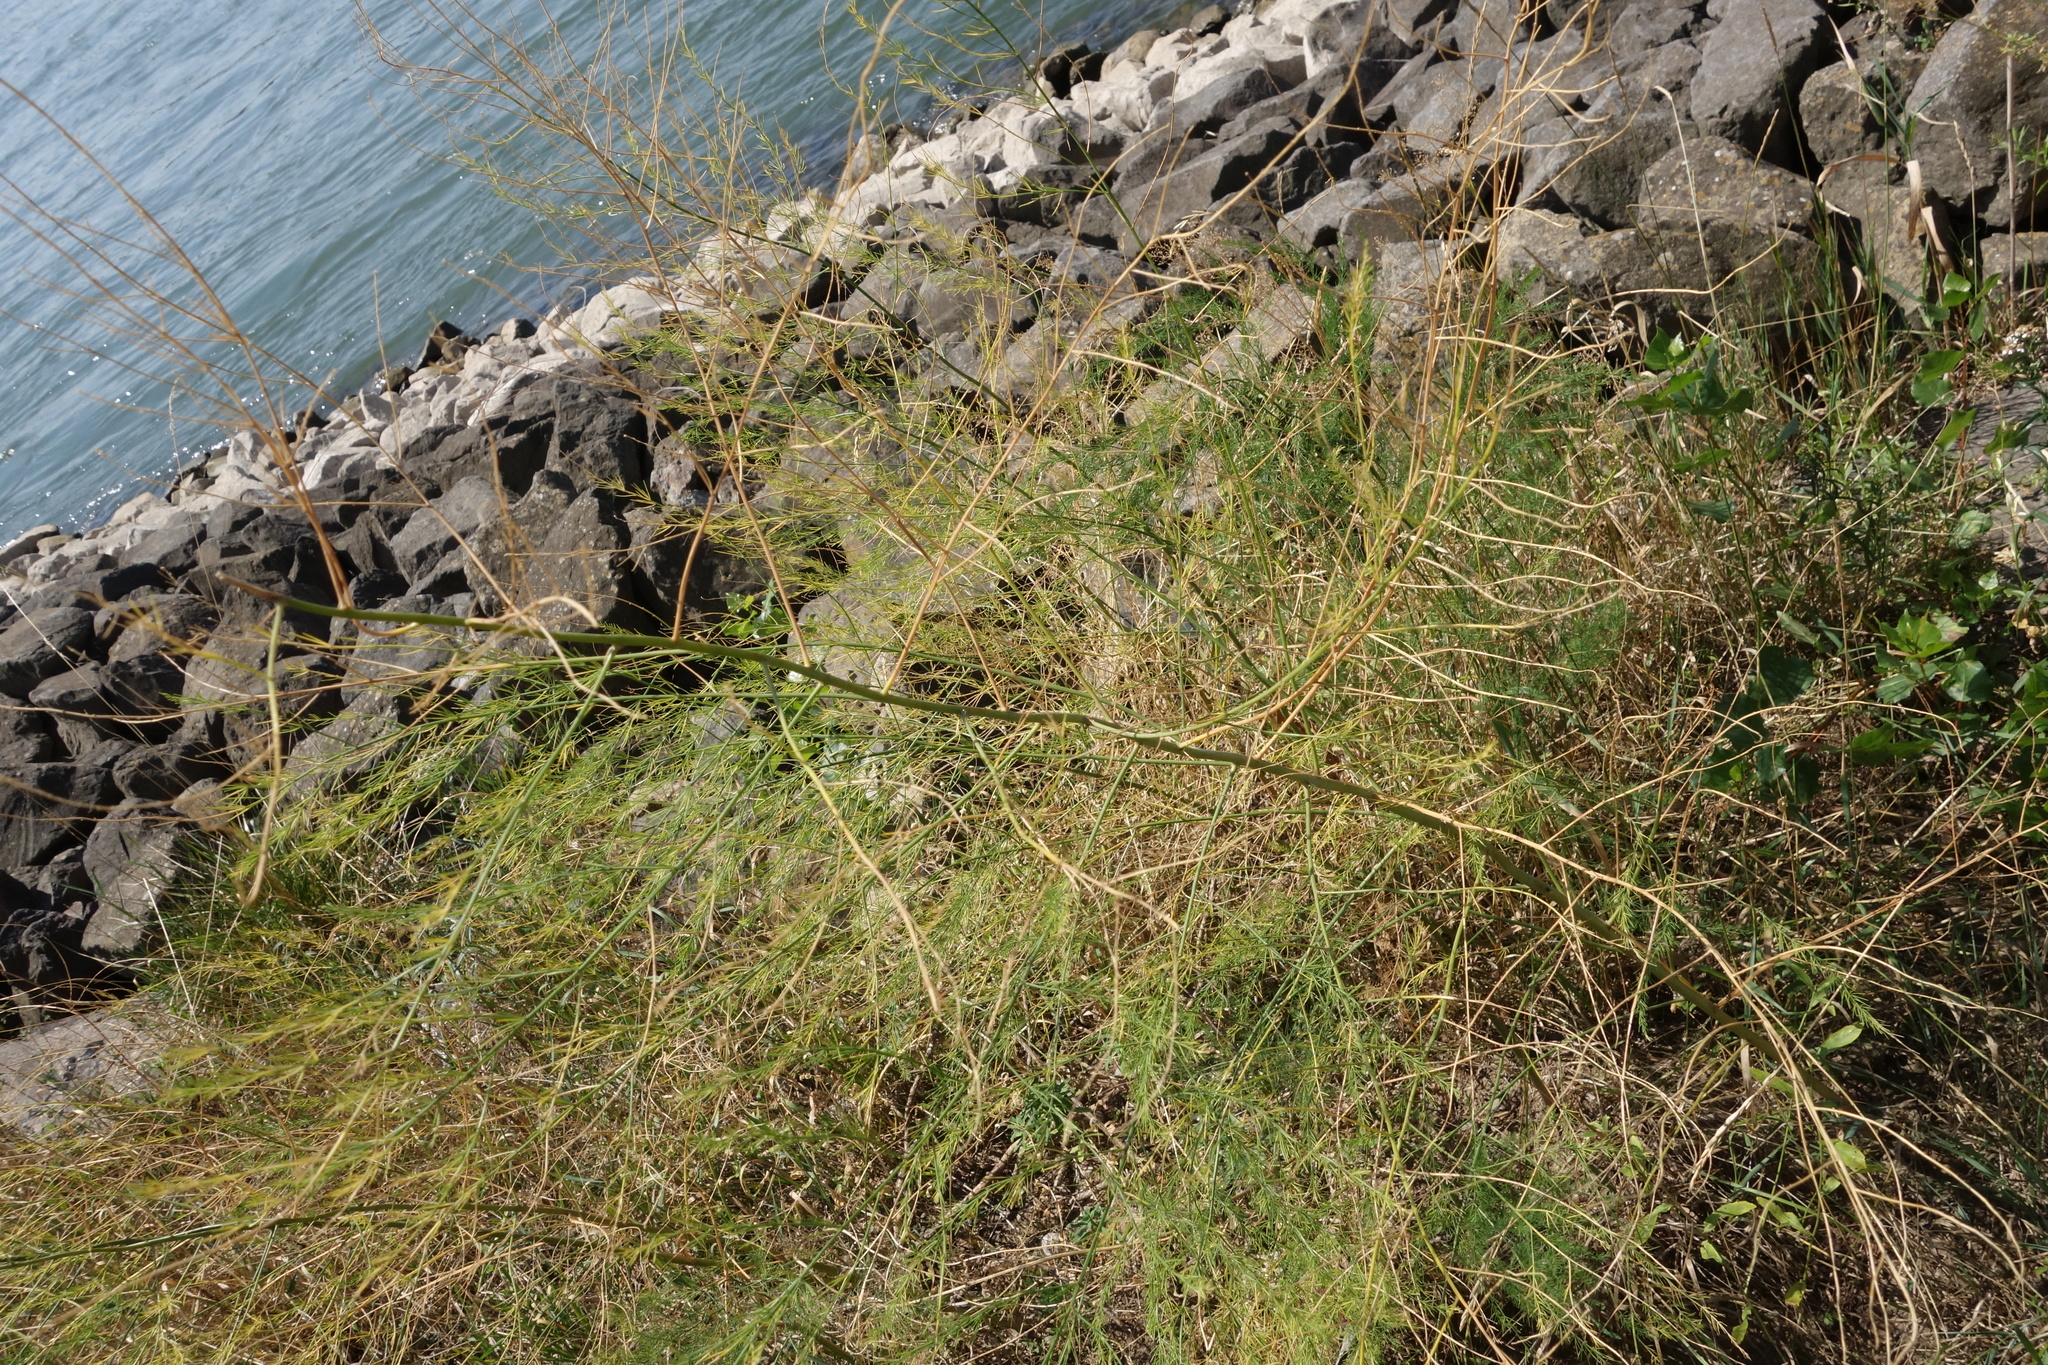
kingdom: Plantae
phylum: Tracheophyta
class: Liliopsida
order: Asparagales
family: Asparagaceae
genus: Asparagus
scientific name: Asparagus officinalis
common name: Garden asparagus
